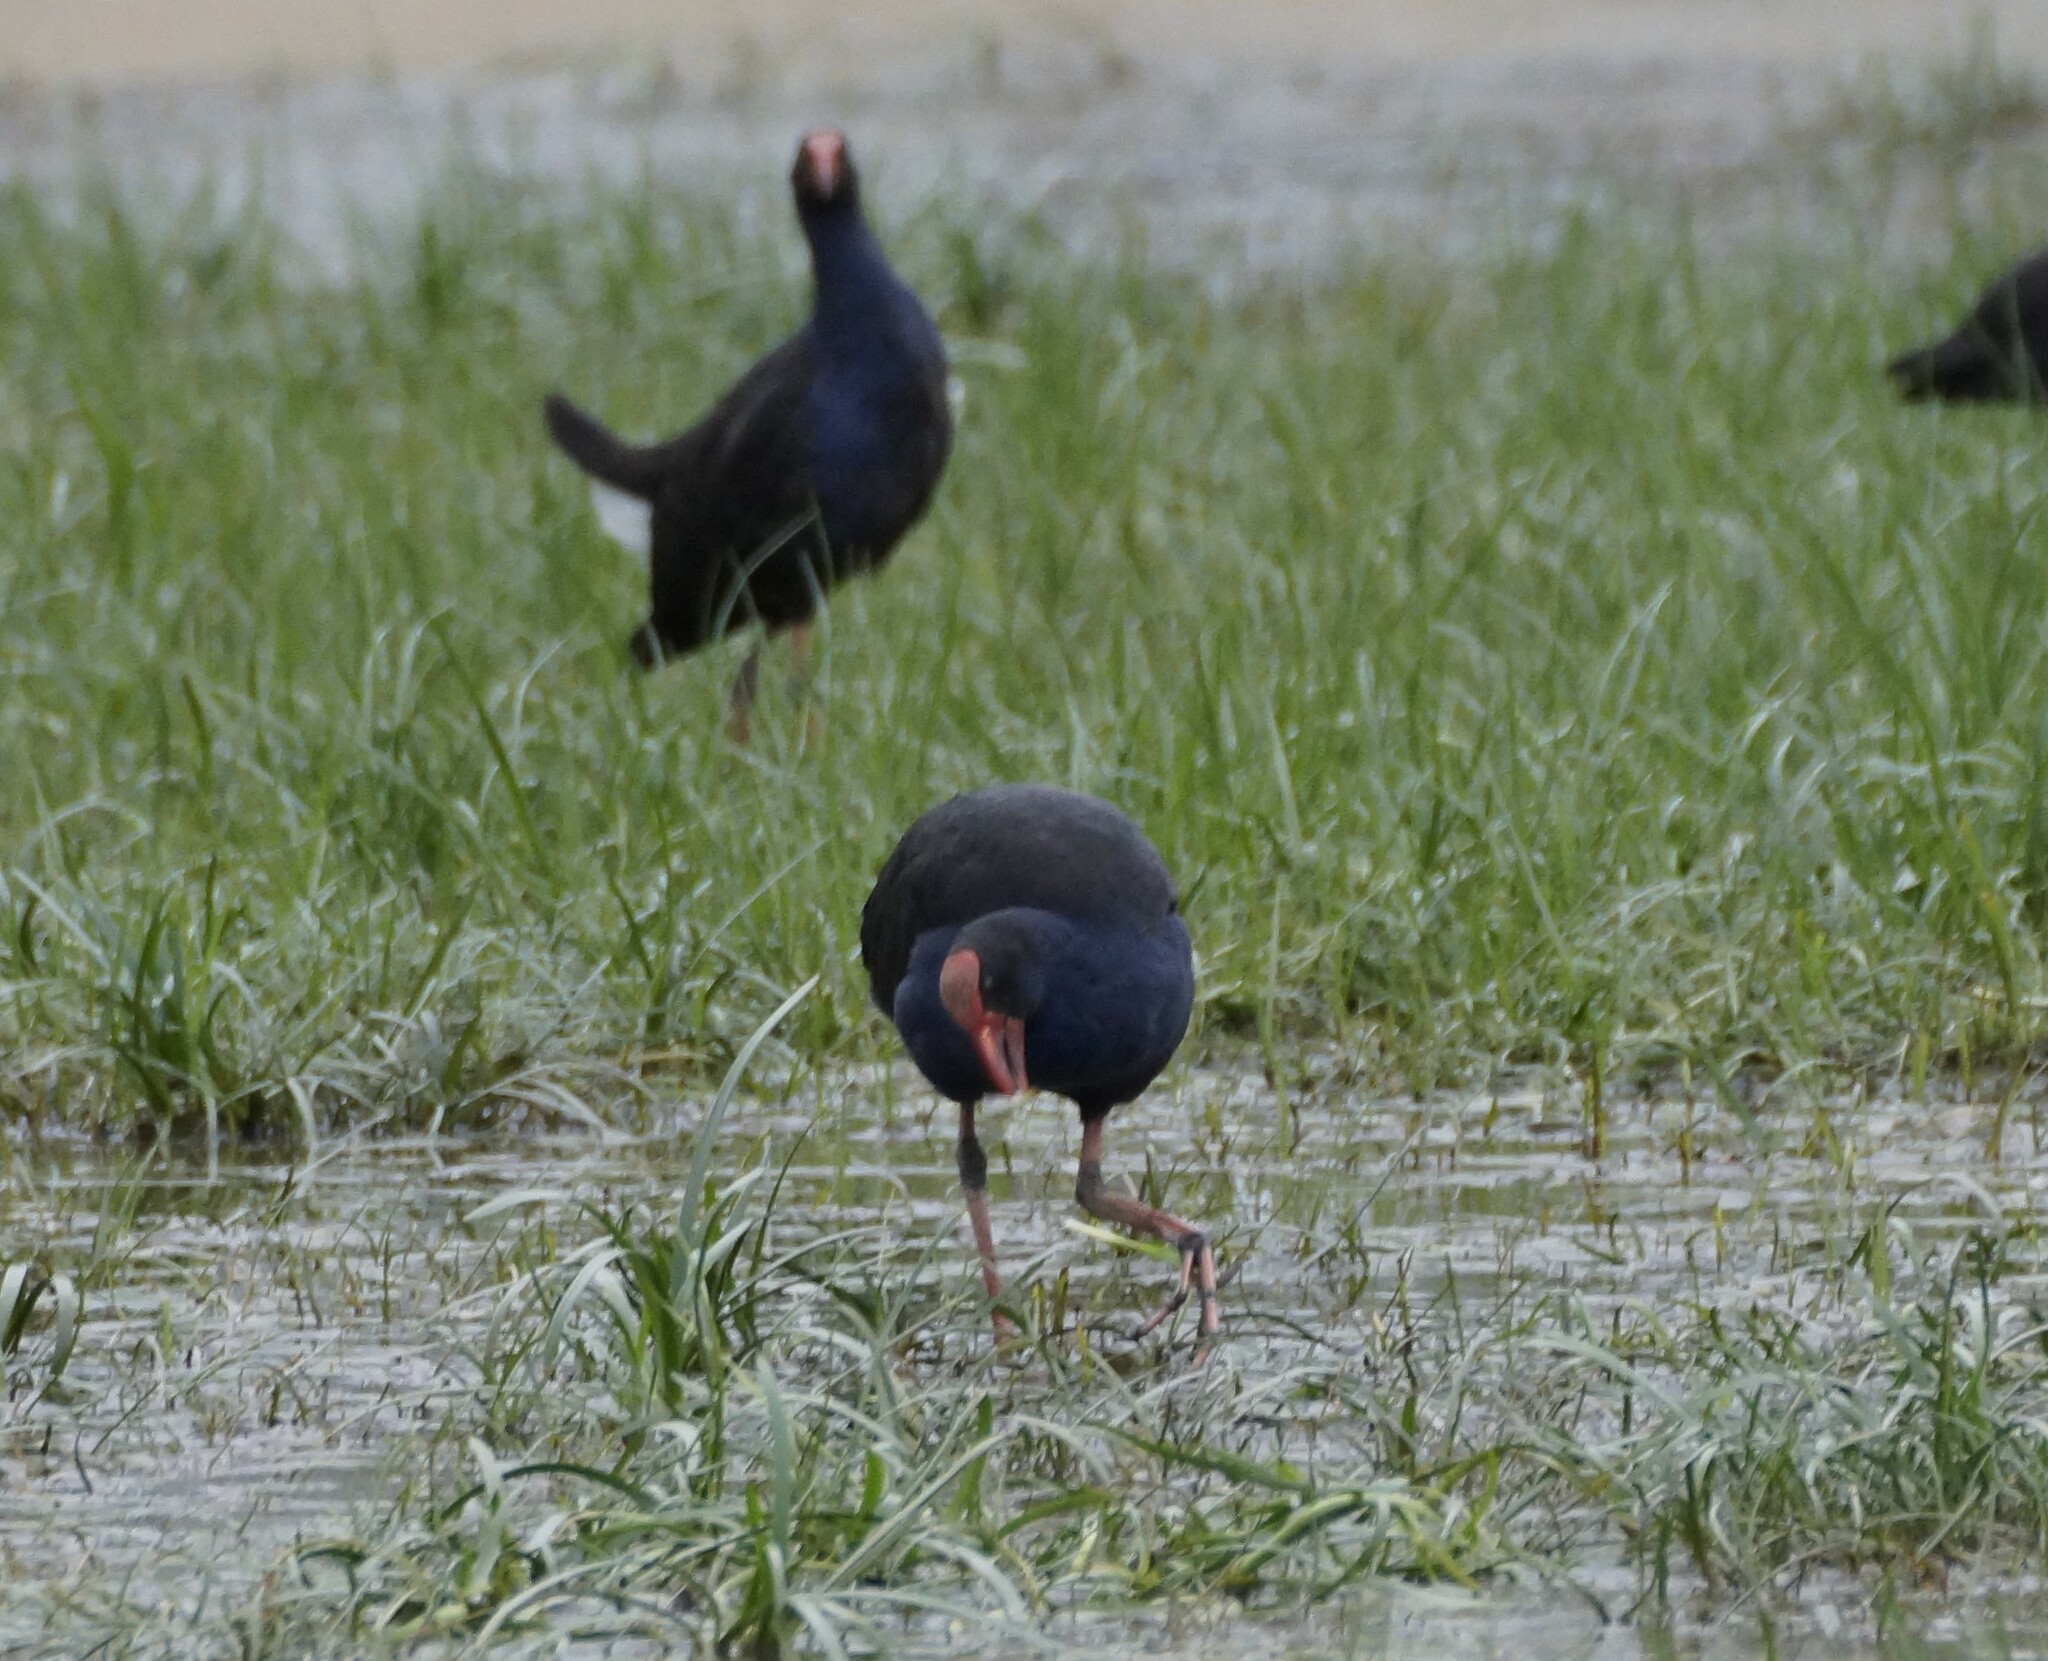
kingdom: Animalia
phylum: Chordata
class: Aves
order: Gruiformes
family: Rallidae
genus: Porphyrio
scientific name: Porphyrio melanotus
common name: Australasian swamphen
